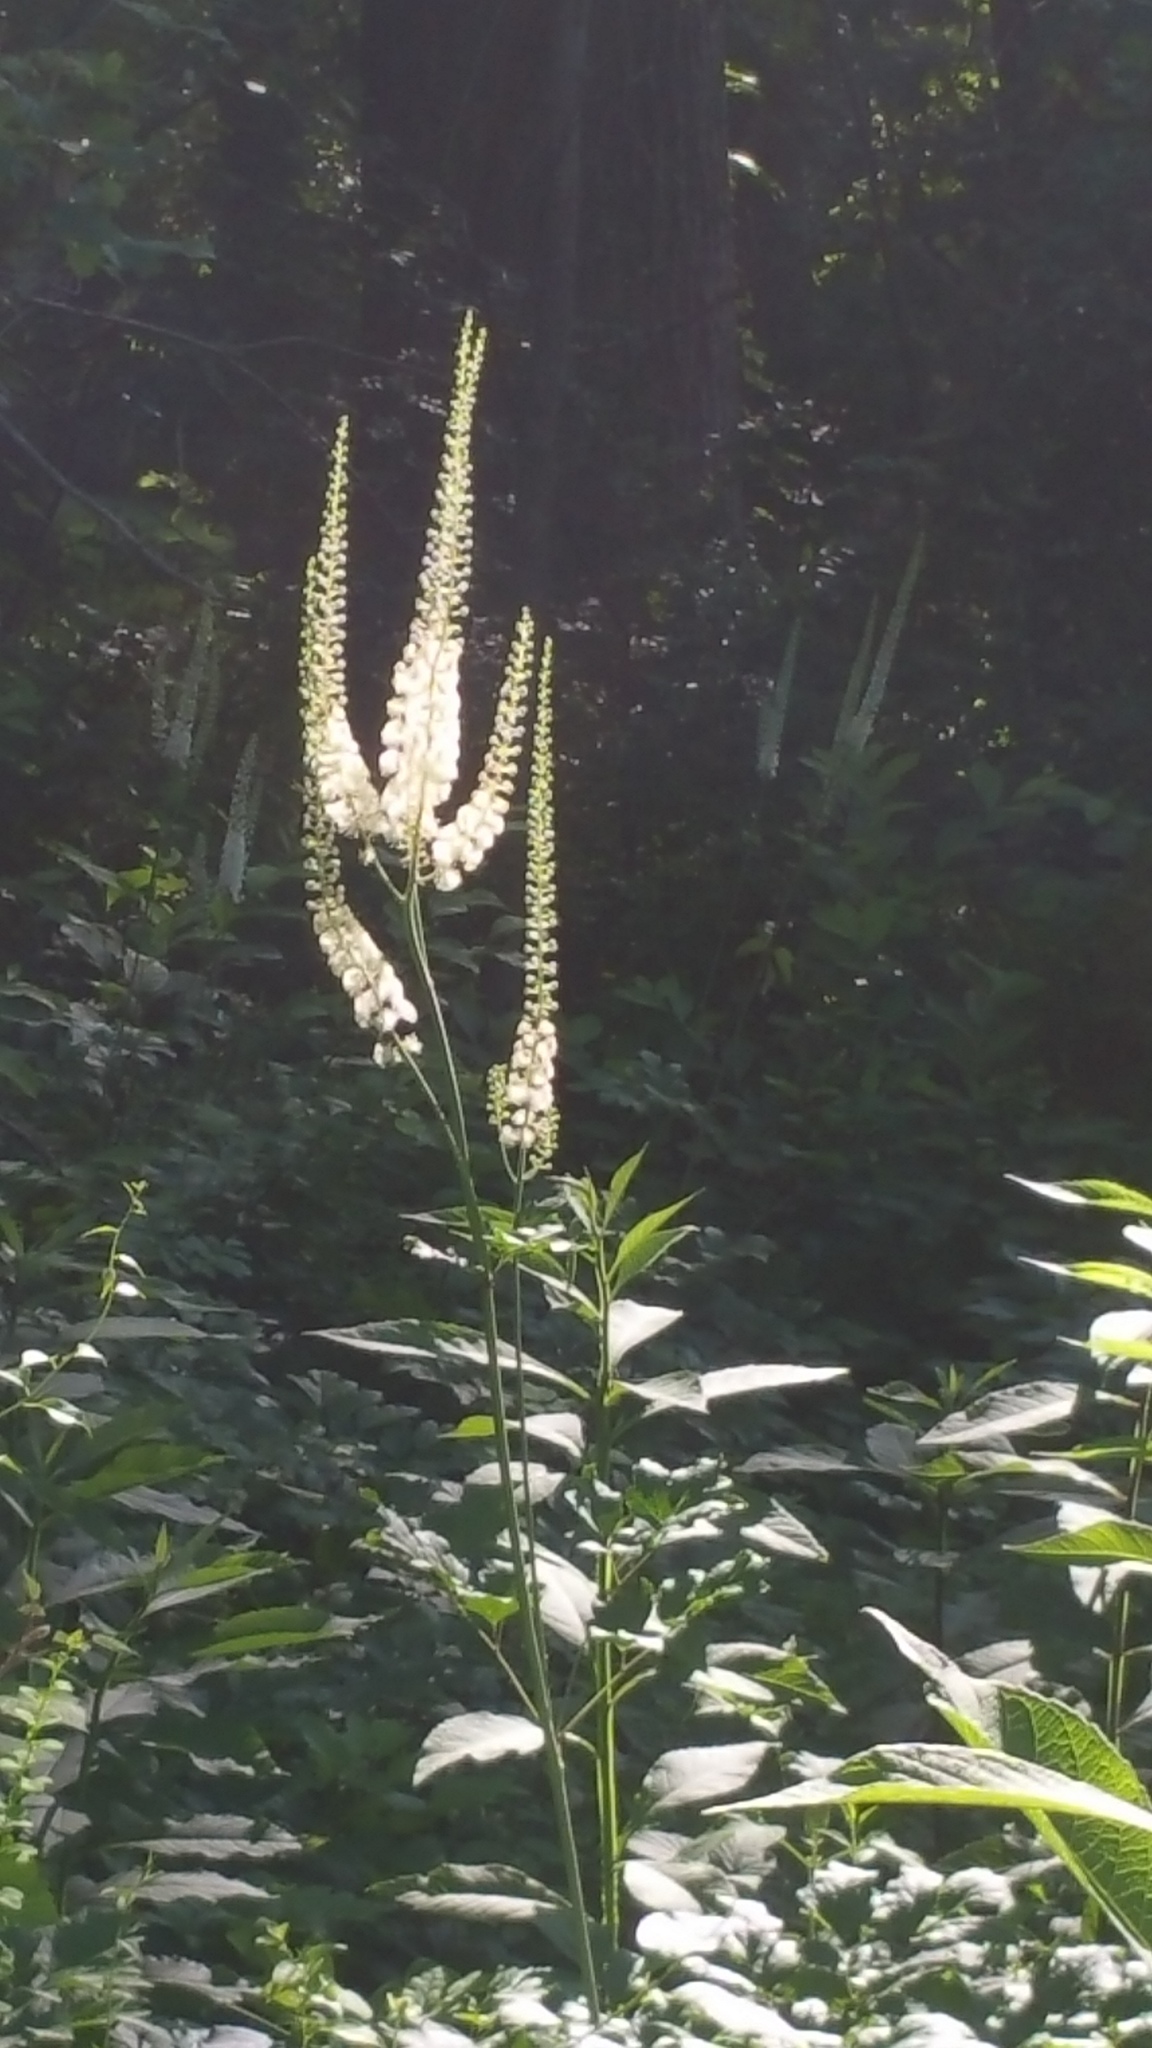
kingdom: Plantae
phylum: Tracheophyta
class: Magnoliopsida
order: Ranunculales
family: Ranunculaceae
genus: Actaea
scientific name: Actaea racemosa
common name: Black cohosh
